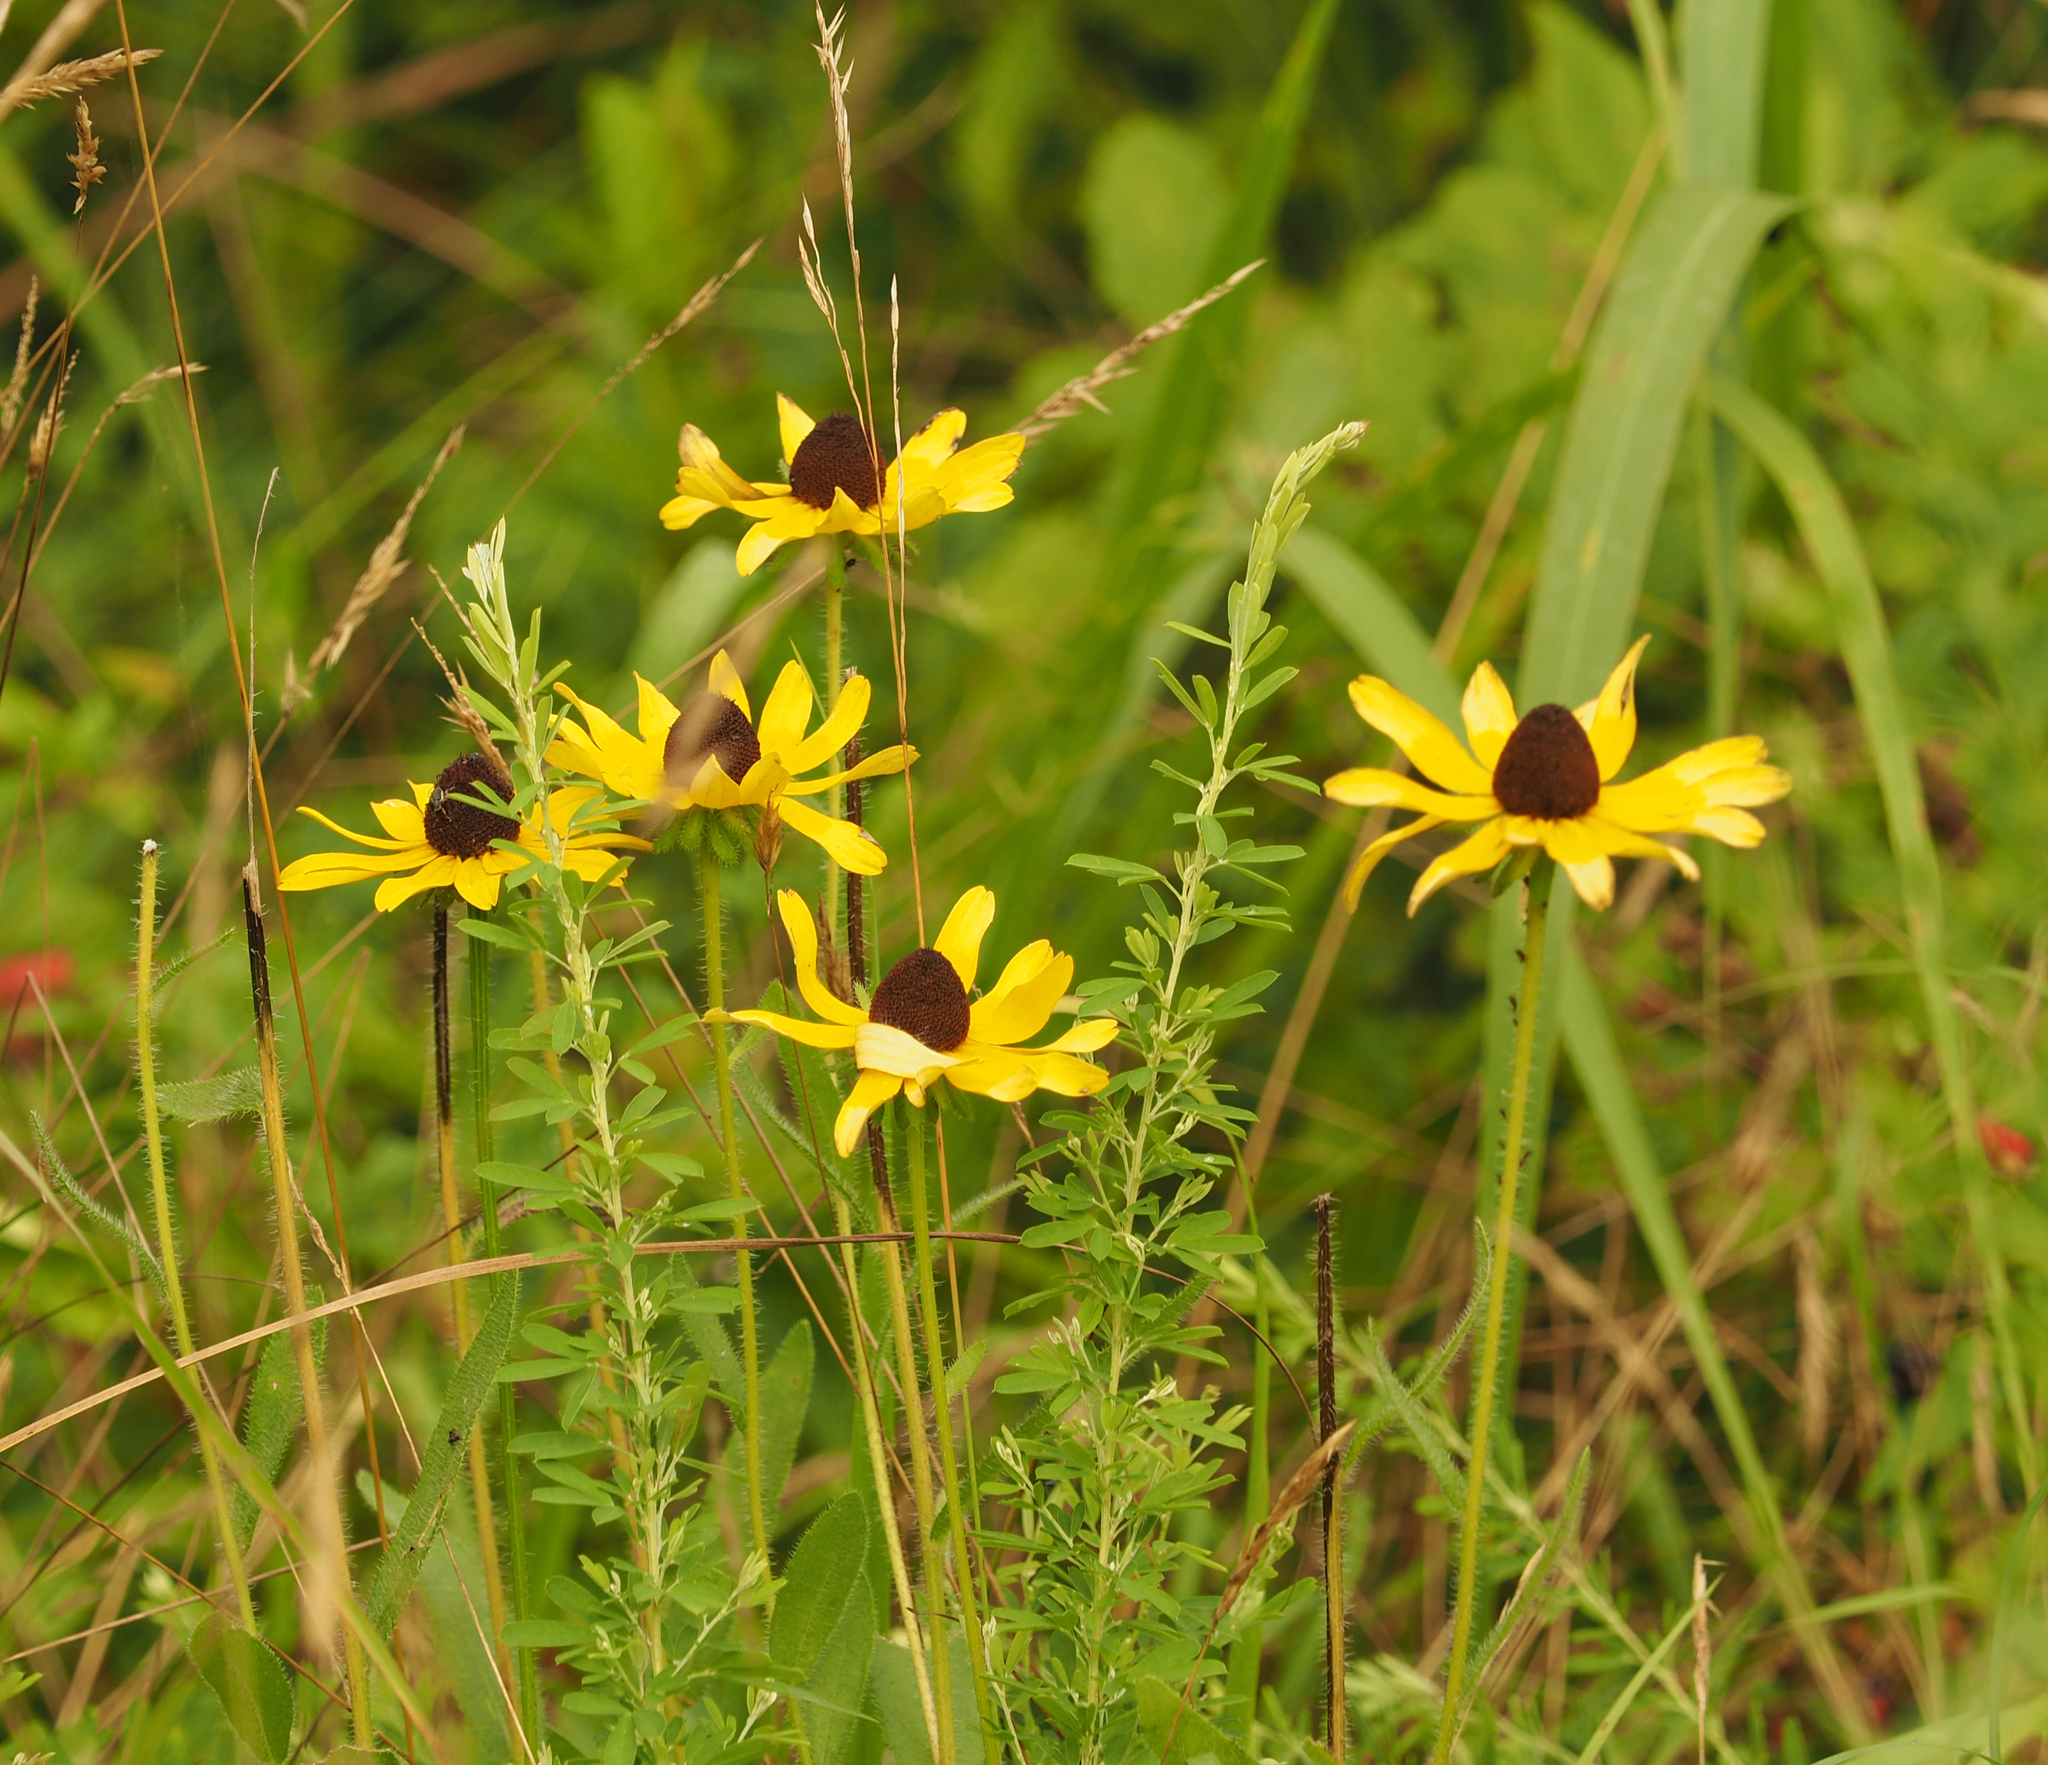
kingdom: Plantae
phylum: Tracheophyta
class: Magnoliopsida
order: Asterales
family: Asteraceae
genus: Rudbeckia
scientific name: Rudbeckia hirta
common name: Black-eyed-susan
